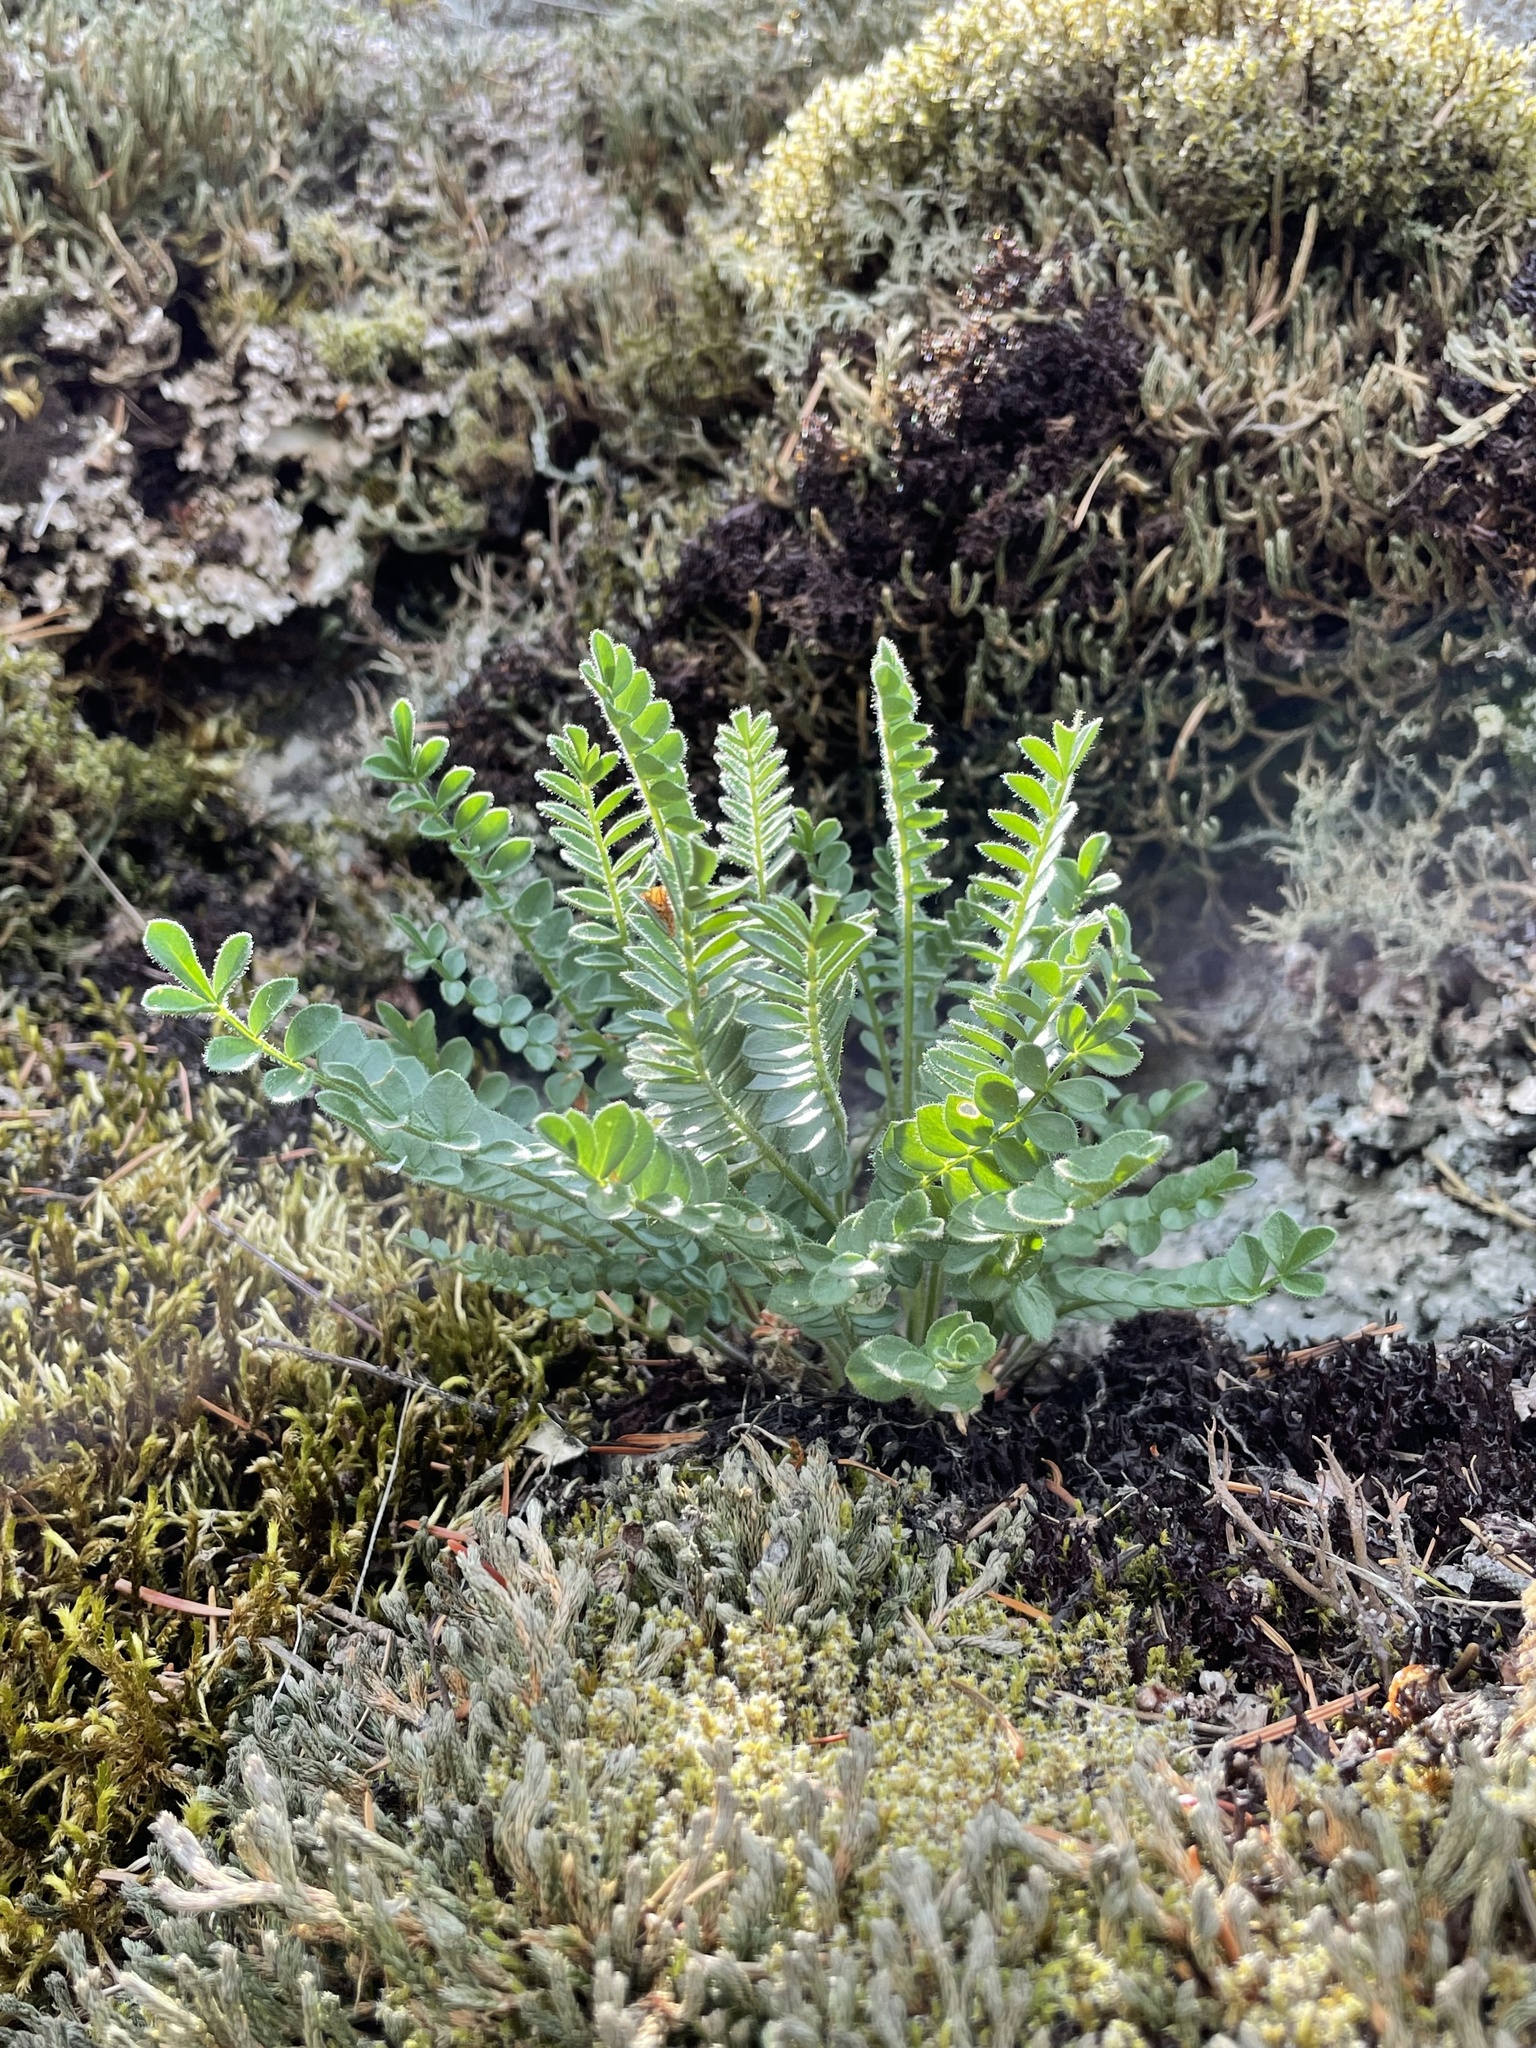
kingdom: Plantae
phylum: Tracheophyta
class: Magnoliopsida
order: Ericales
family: Polemoniaceae
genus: Polemonium
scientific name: Polemonium pulcherrimum
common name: Short jacob's-ladder
